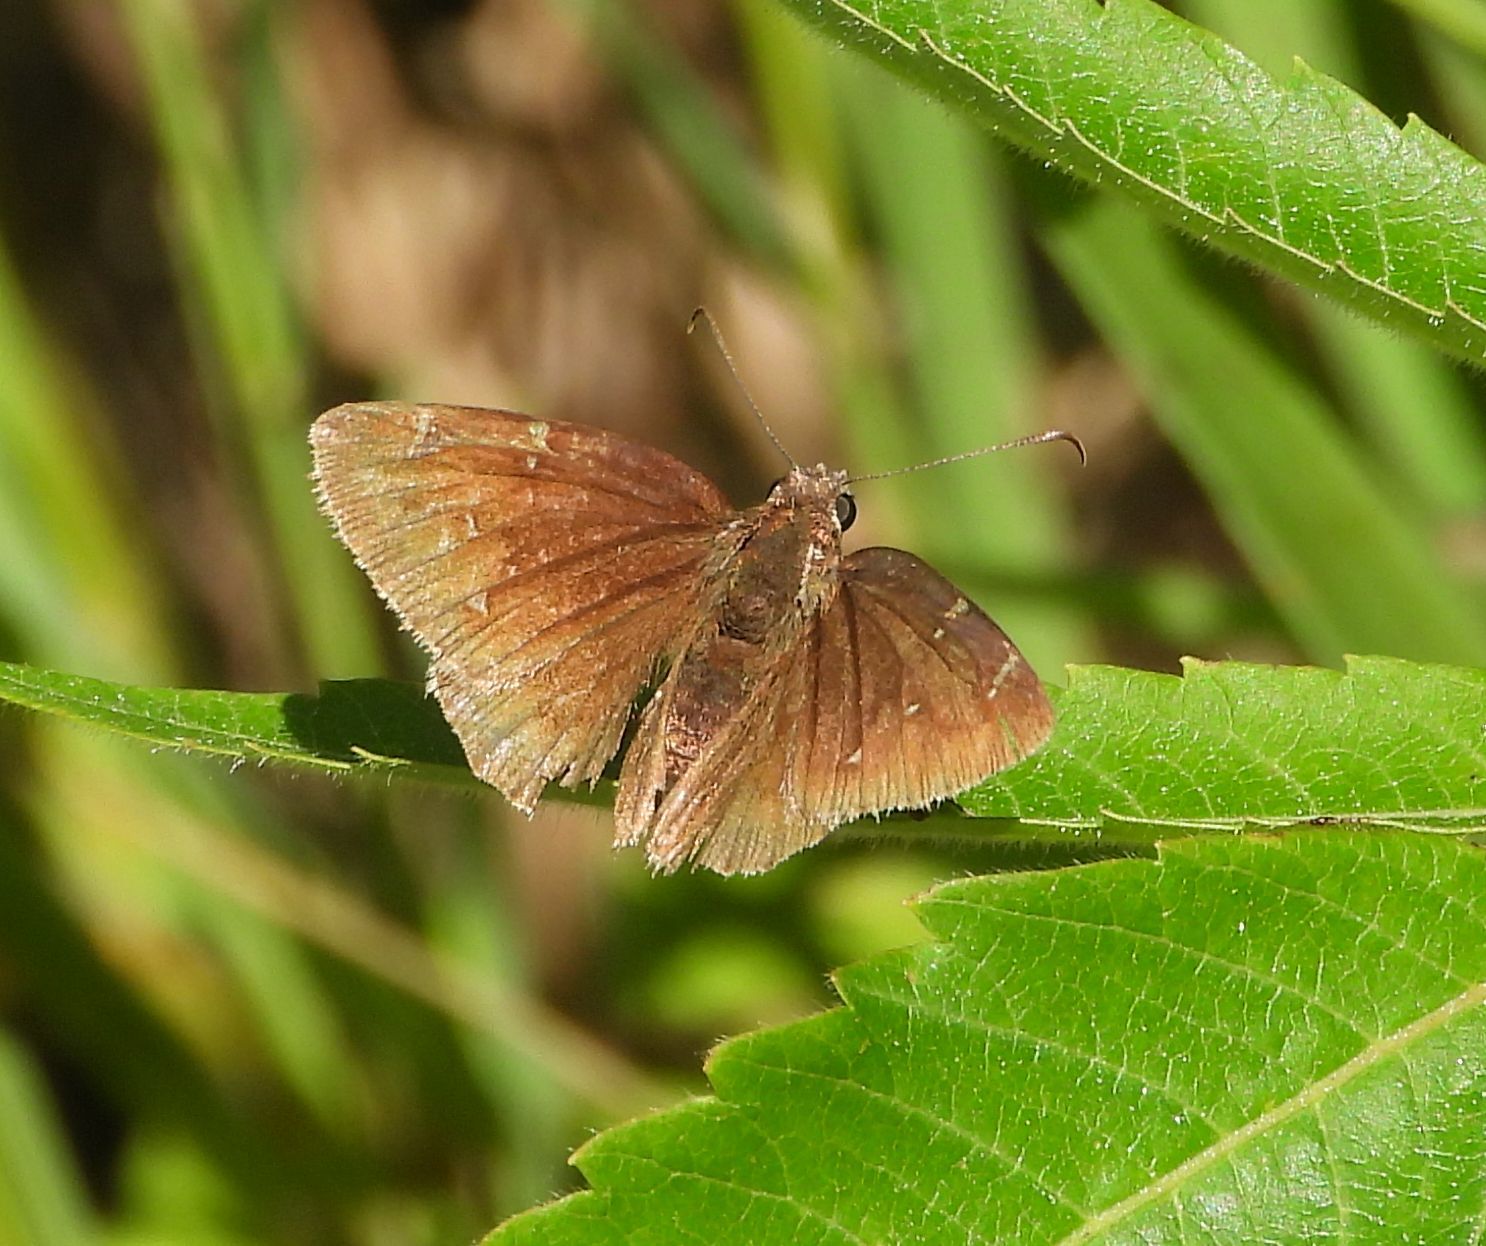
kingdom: Animalia
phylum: Arthropoda
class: Insecta
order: Lepidoptera
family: Hesperiidae
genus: Thorybes
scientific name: Thorybes pylades
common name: Northern cloudywing
